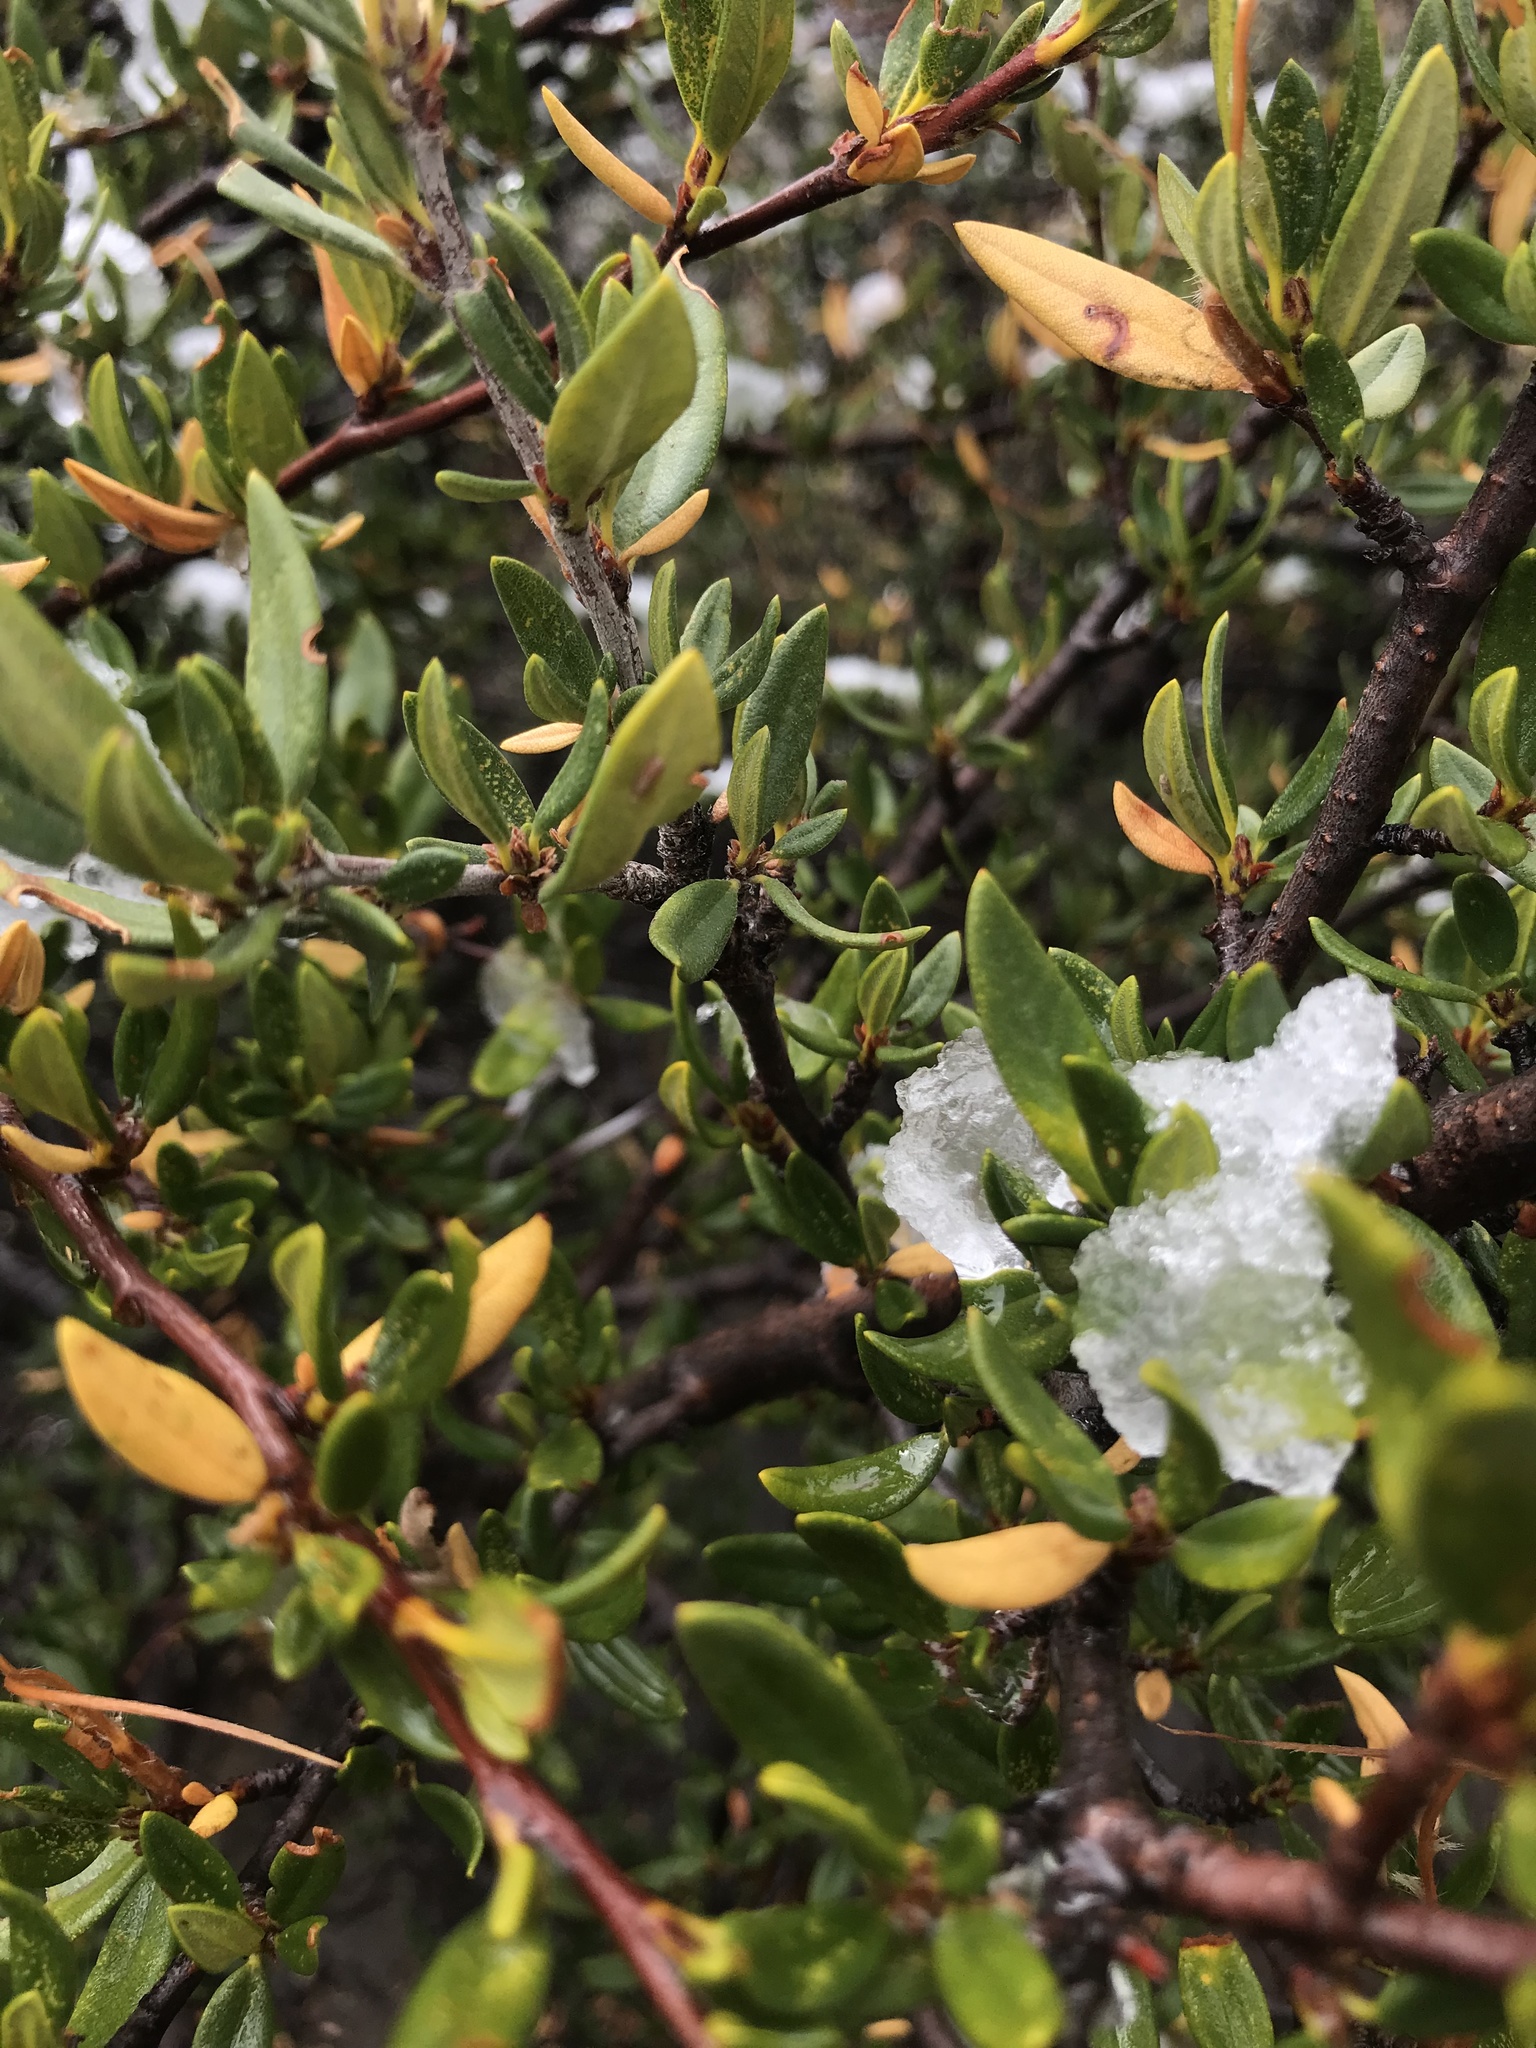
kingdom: Plantae
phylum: Tracheophyta
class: Magnoliopsida
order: Rosales
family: Rosaceae
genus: Cercocarpus
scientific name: Cercocarpus ledifolius
